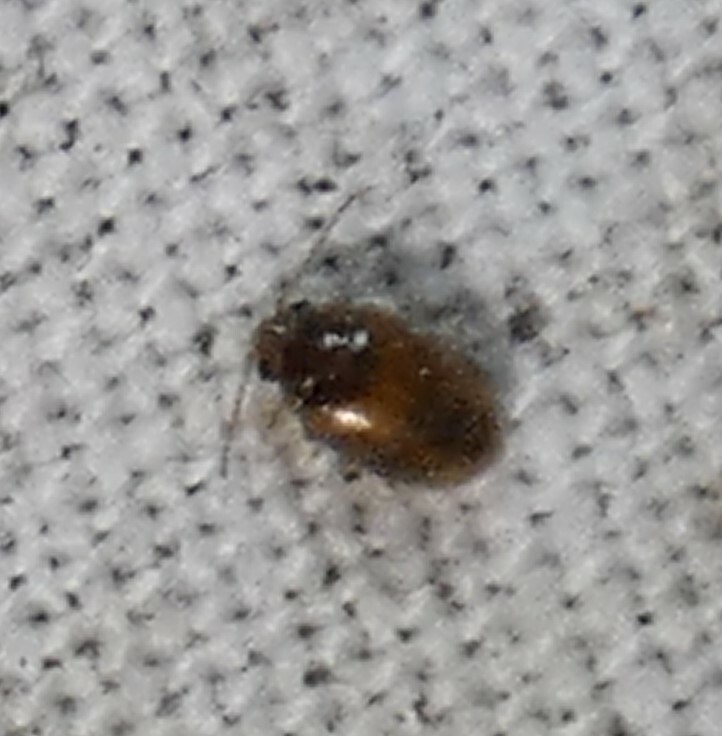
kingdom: Animalia
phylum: Arthropoda
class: Insecta
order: Coleoptera
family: Scirtidae
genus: Contacyphon
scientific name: Contacyphon
